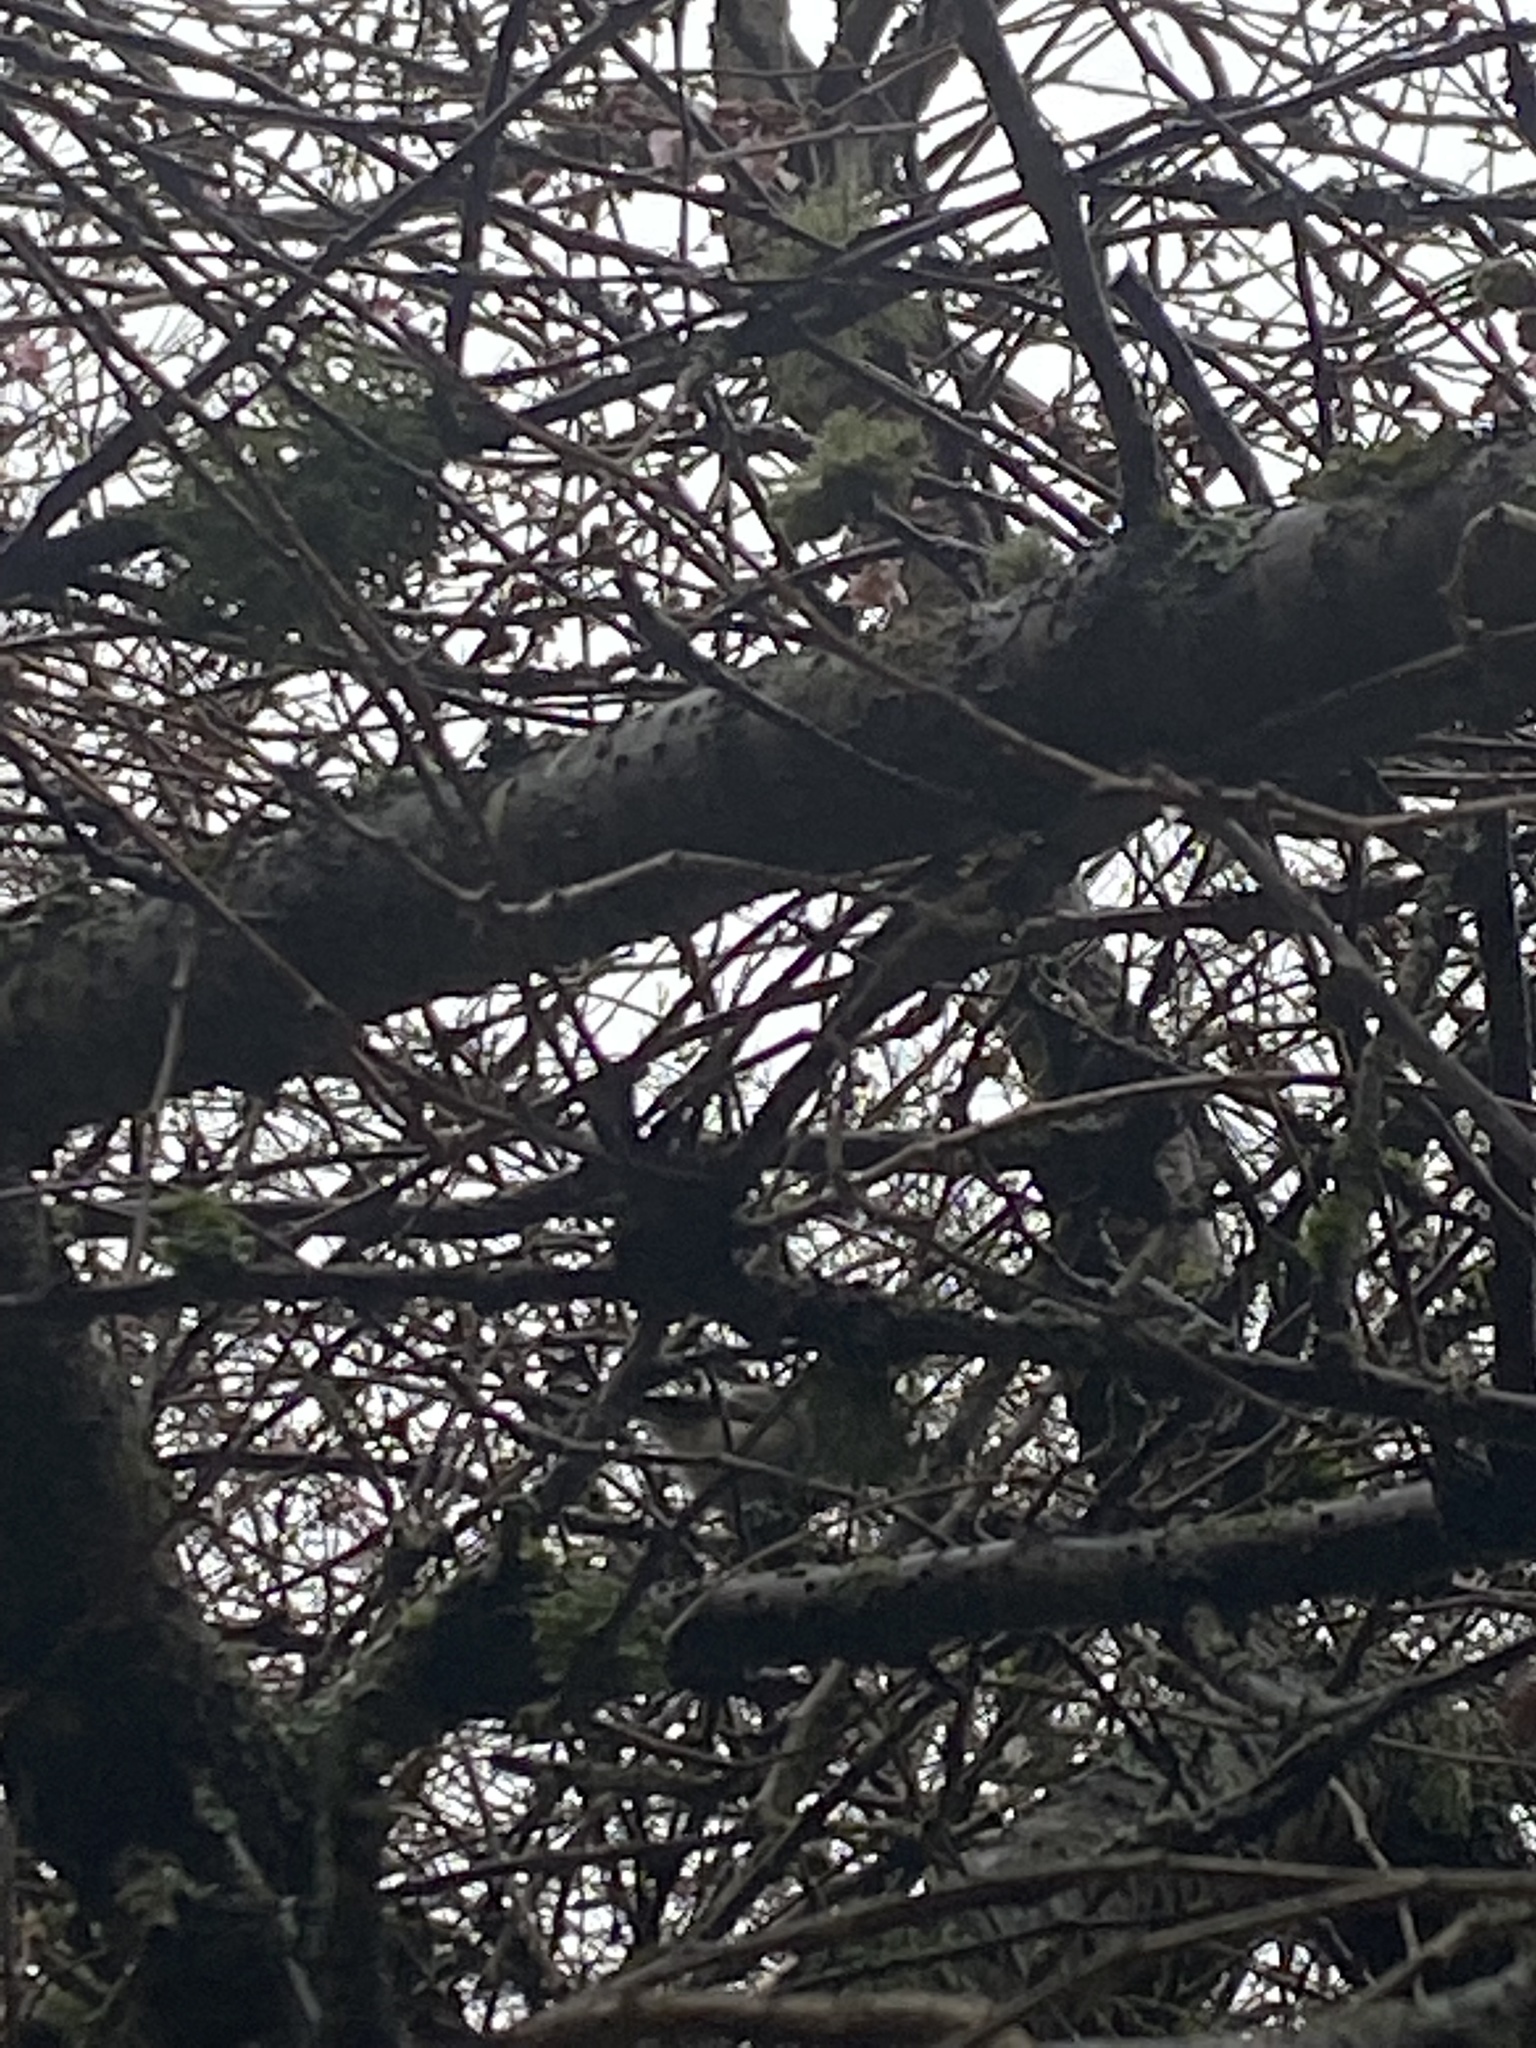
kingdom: Animalia
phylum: Chordata
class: Aves
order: Passeriformes
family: Paridae
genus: Poecile
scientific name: Poecile atricapillus
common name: Black-capped chickadee
